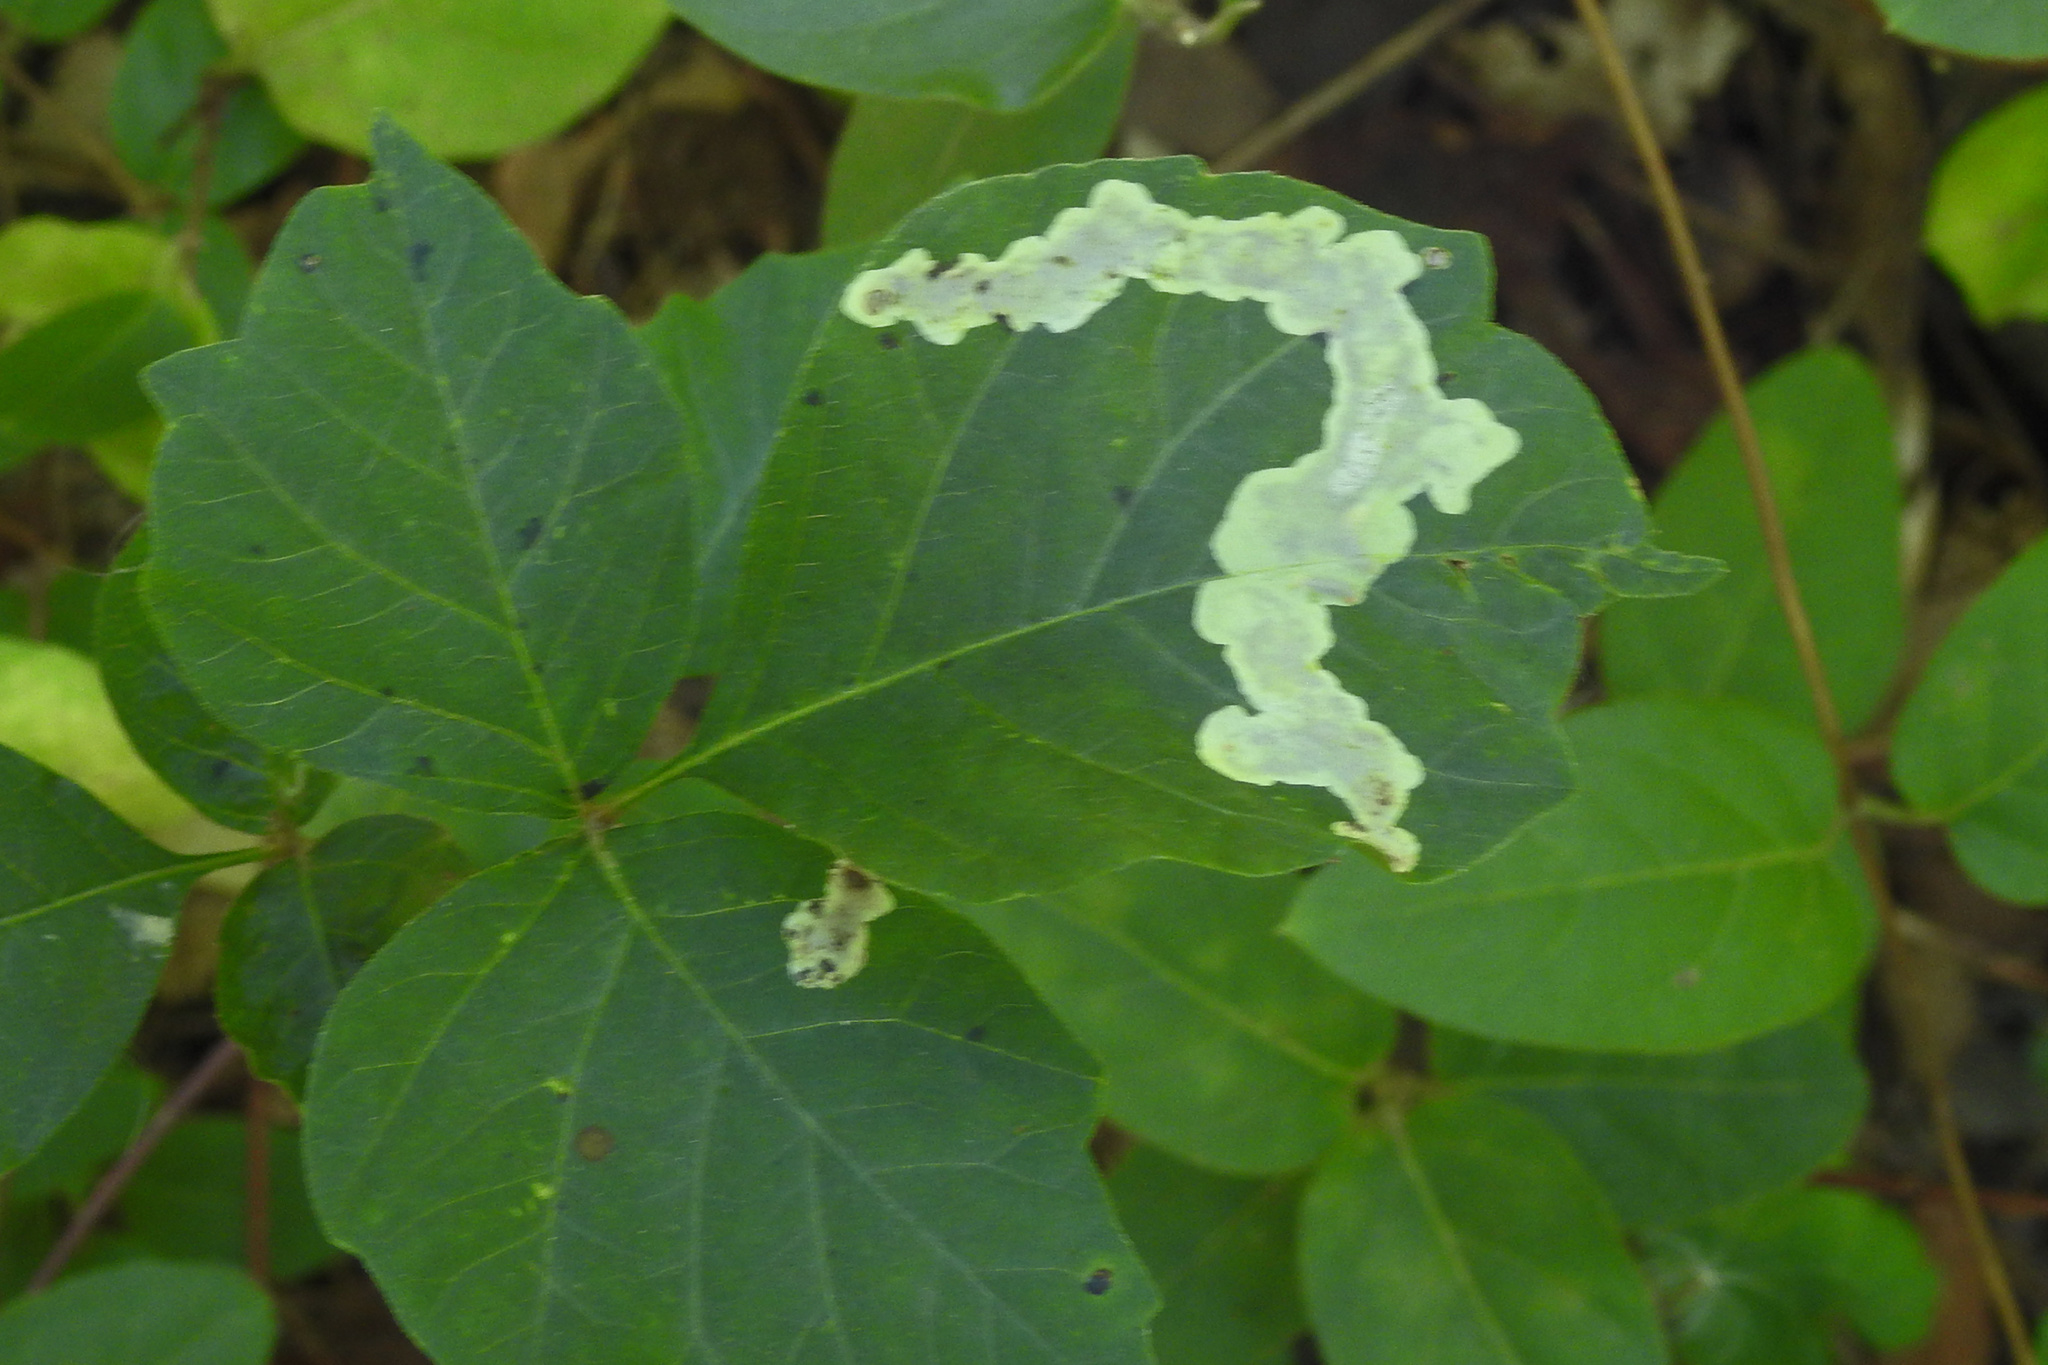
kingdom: Animalia
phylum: Arthropoda
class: Insecta
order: Lepidoptera
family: Gracillariidae
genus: Cameraria
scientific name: Cameraria guttifinitella
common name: Poison ivy leaf-miner moth
